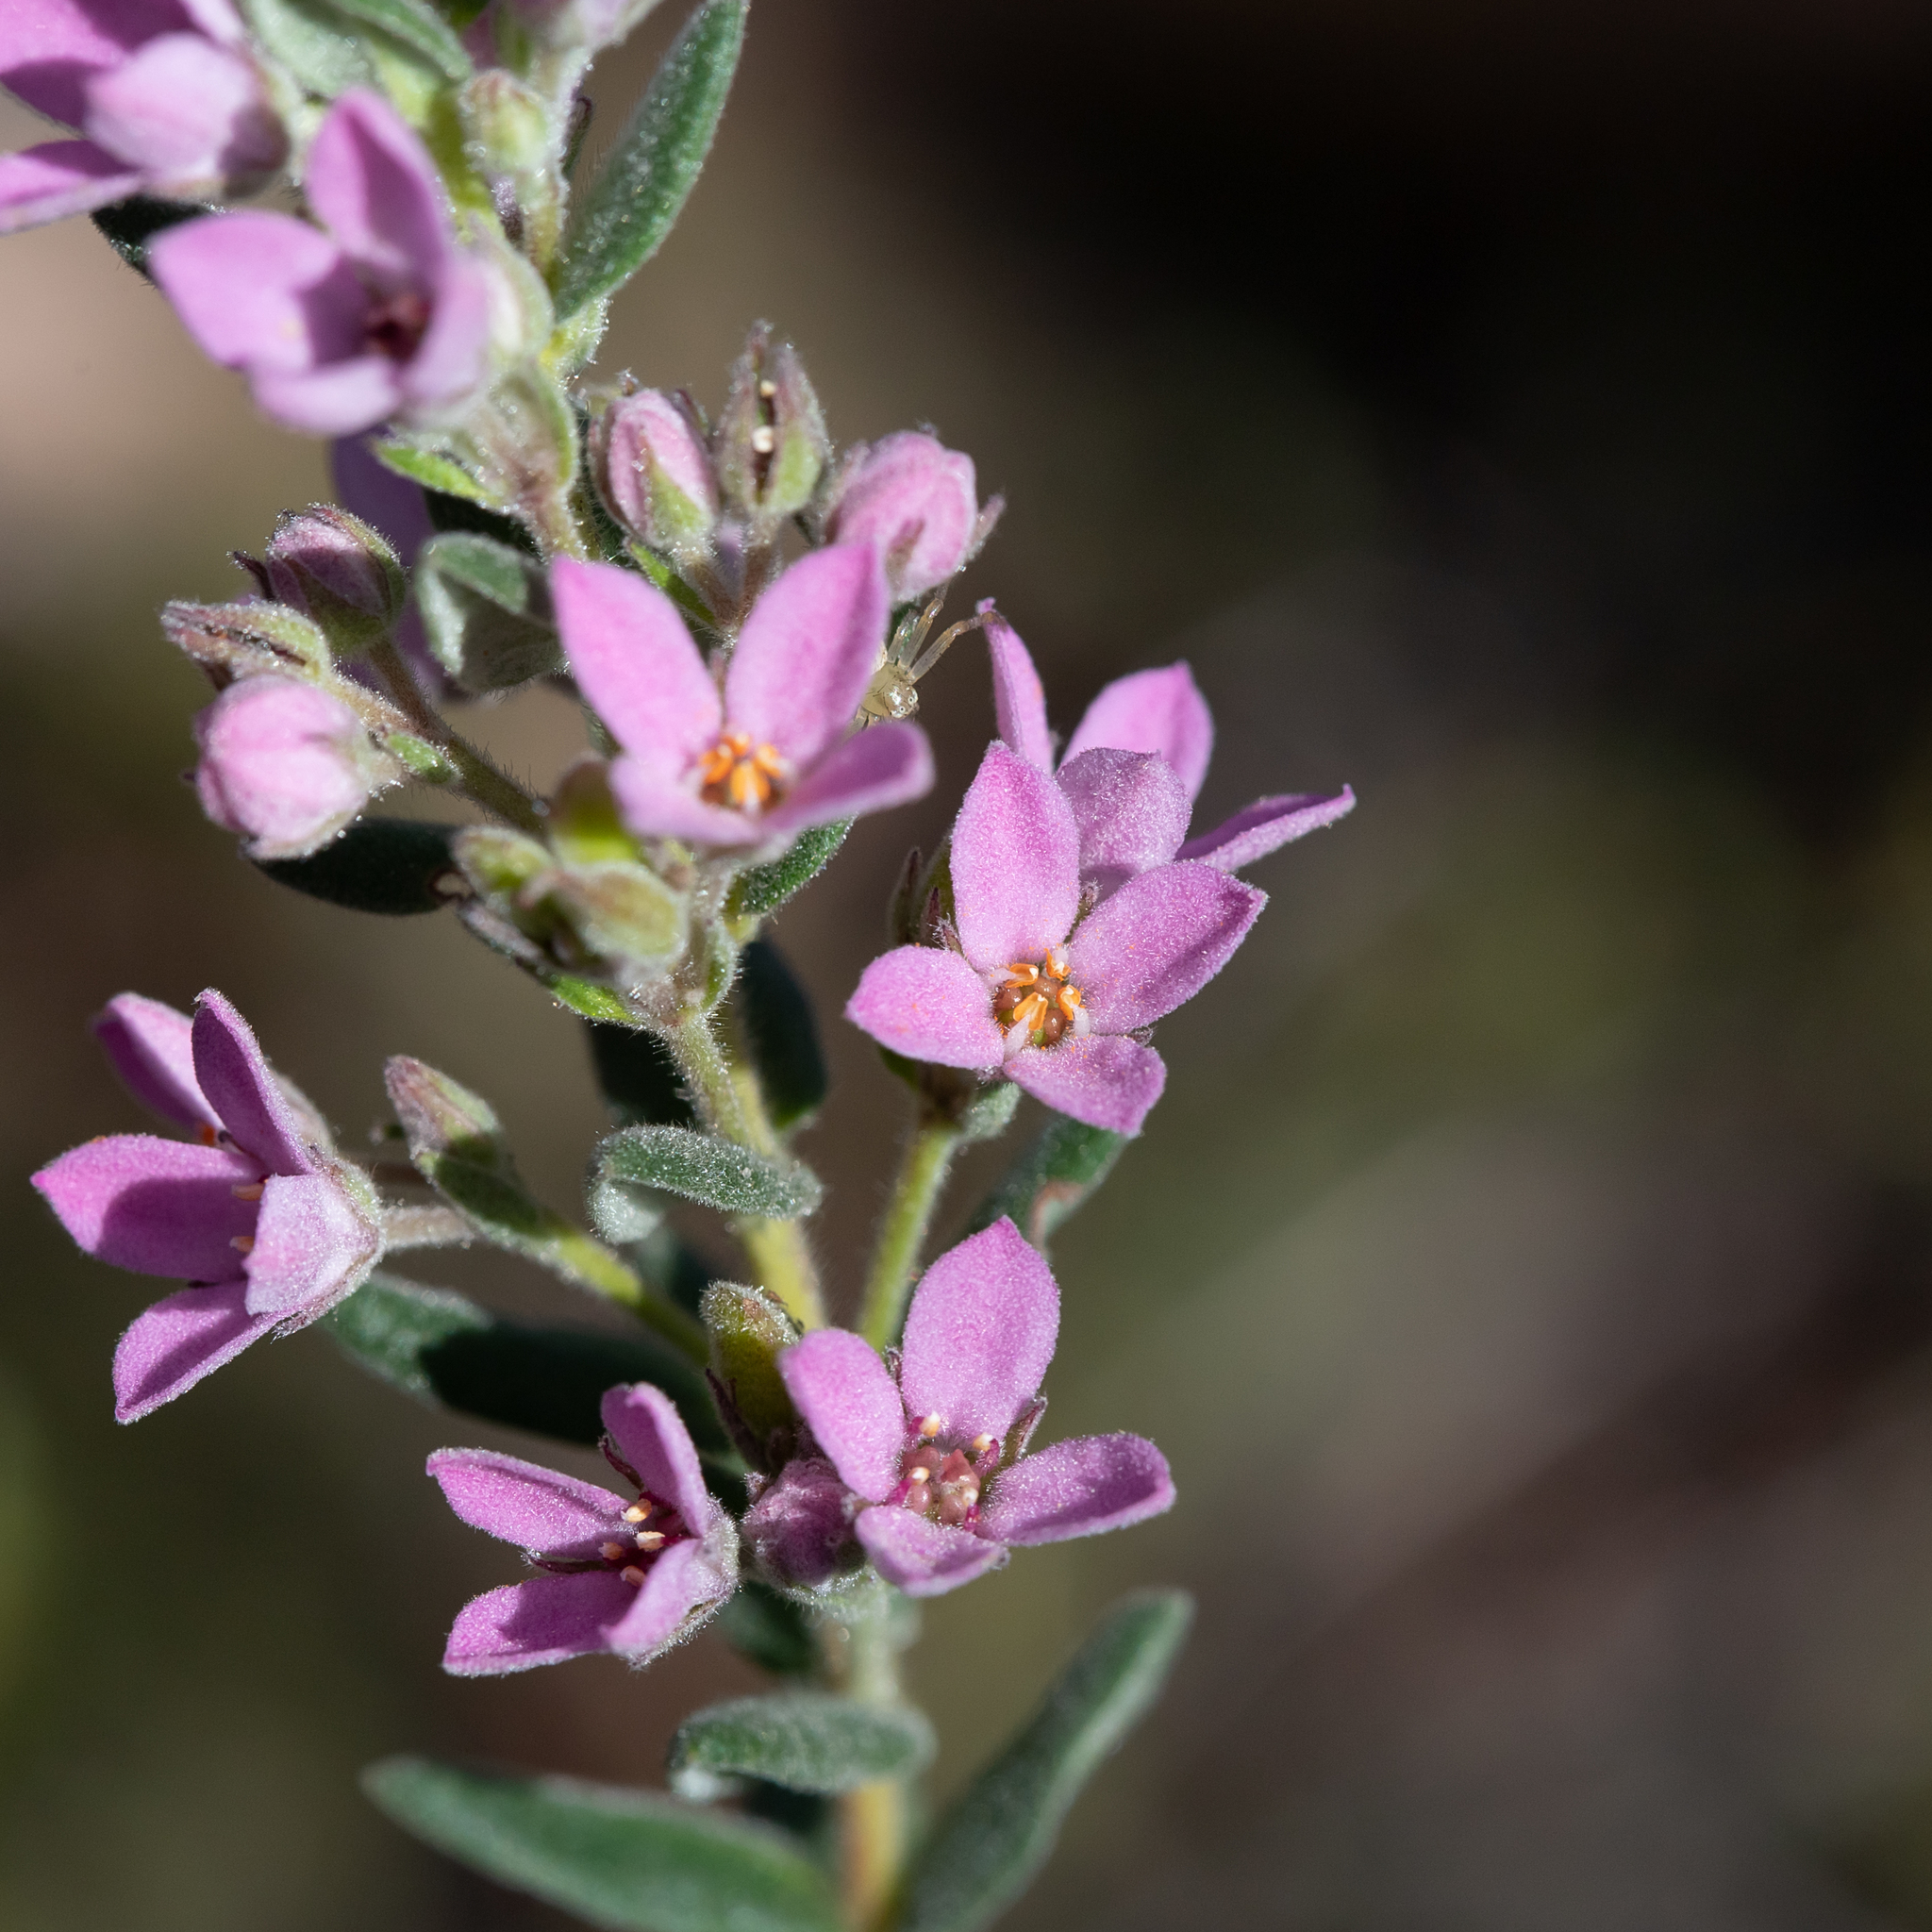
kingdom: Plantae
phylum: Tracheophyta
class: Magnoliopsida
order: Sapindales
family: Rutaceae
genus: Zieria
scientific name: Zieria veronicea
